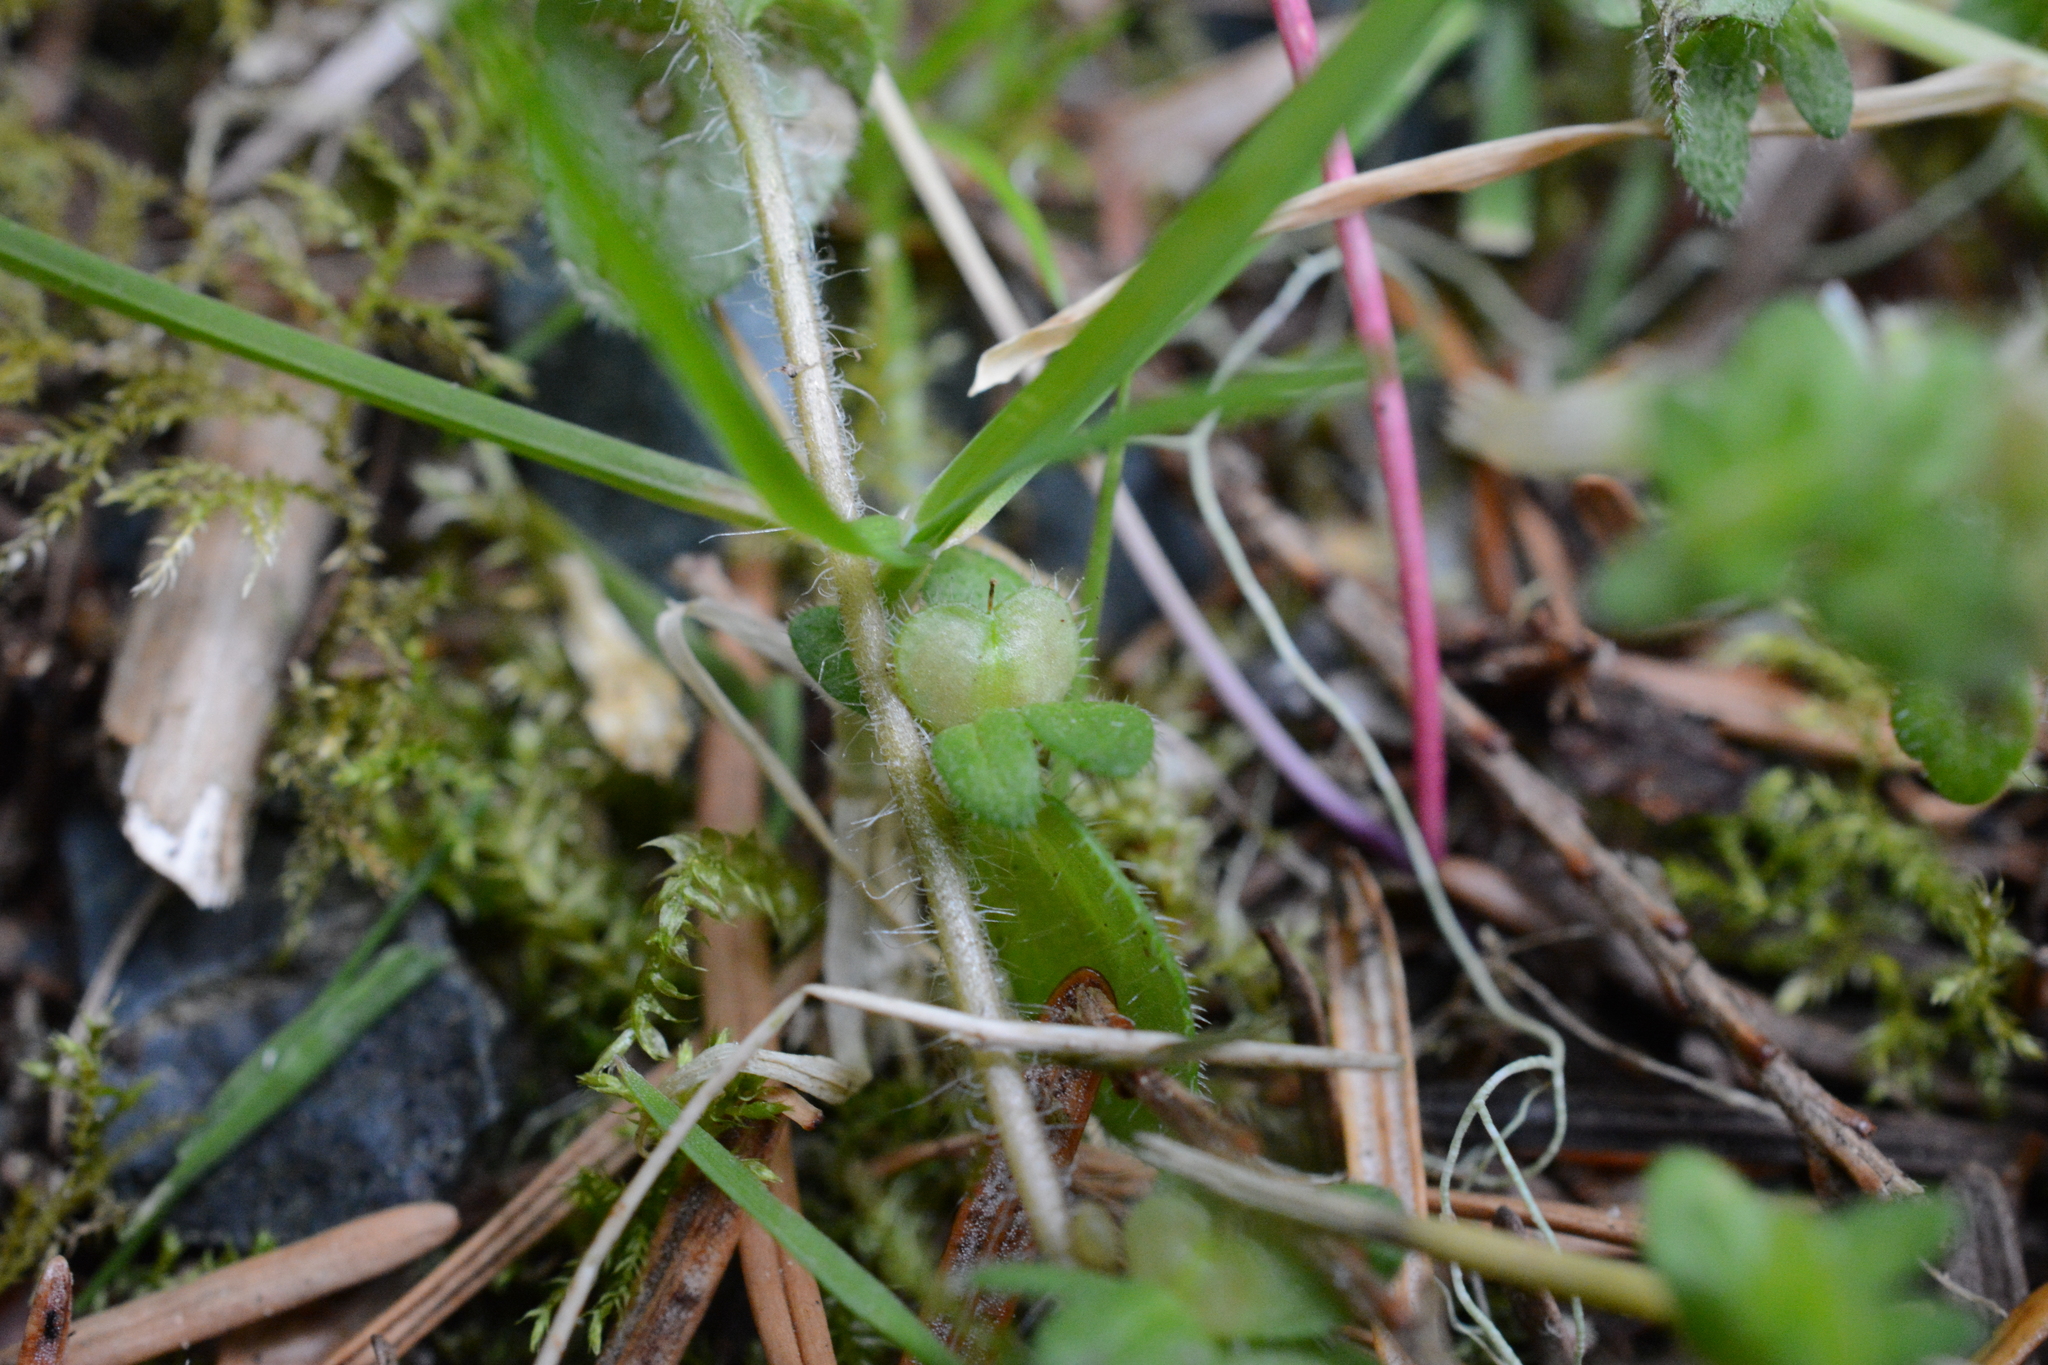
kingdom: Plantae
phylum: Tracheophyta
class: Magnoliopsida
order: Lamiales
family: Plantaginaceae
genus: Veronica
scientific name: Veronica arvensis
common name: Corn speedwell
